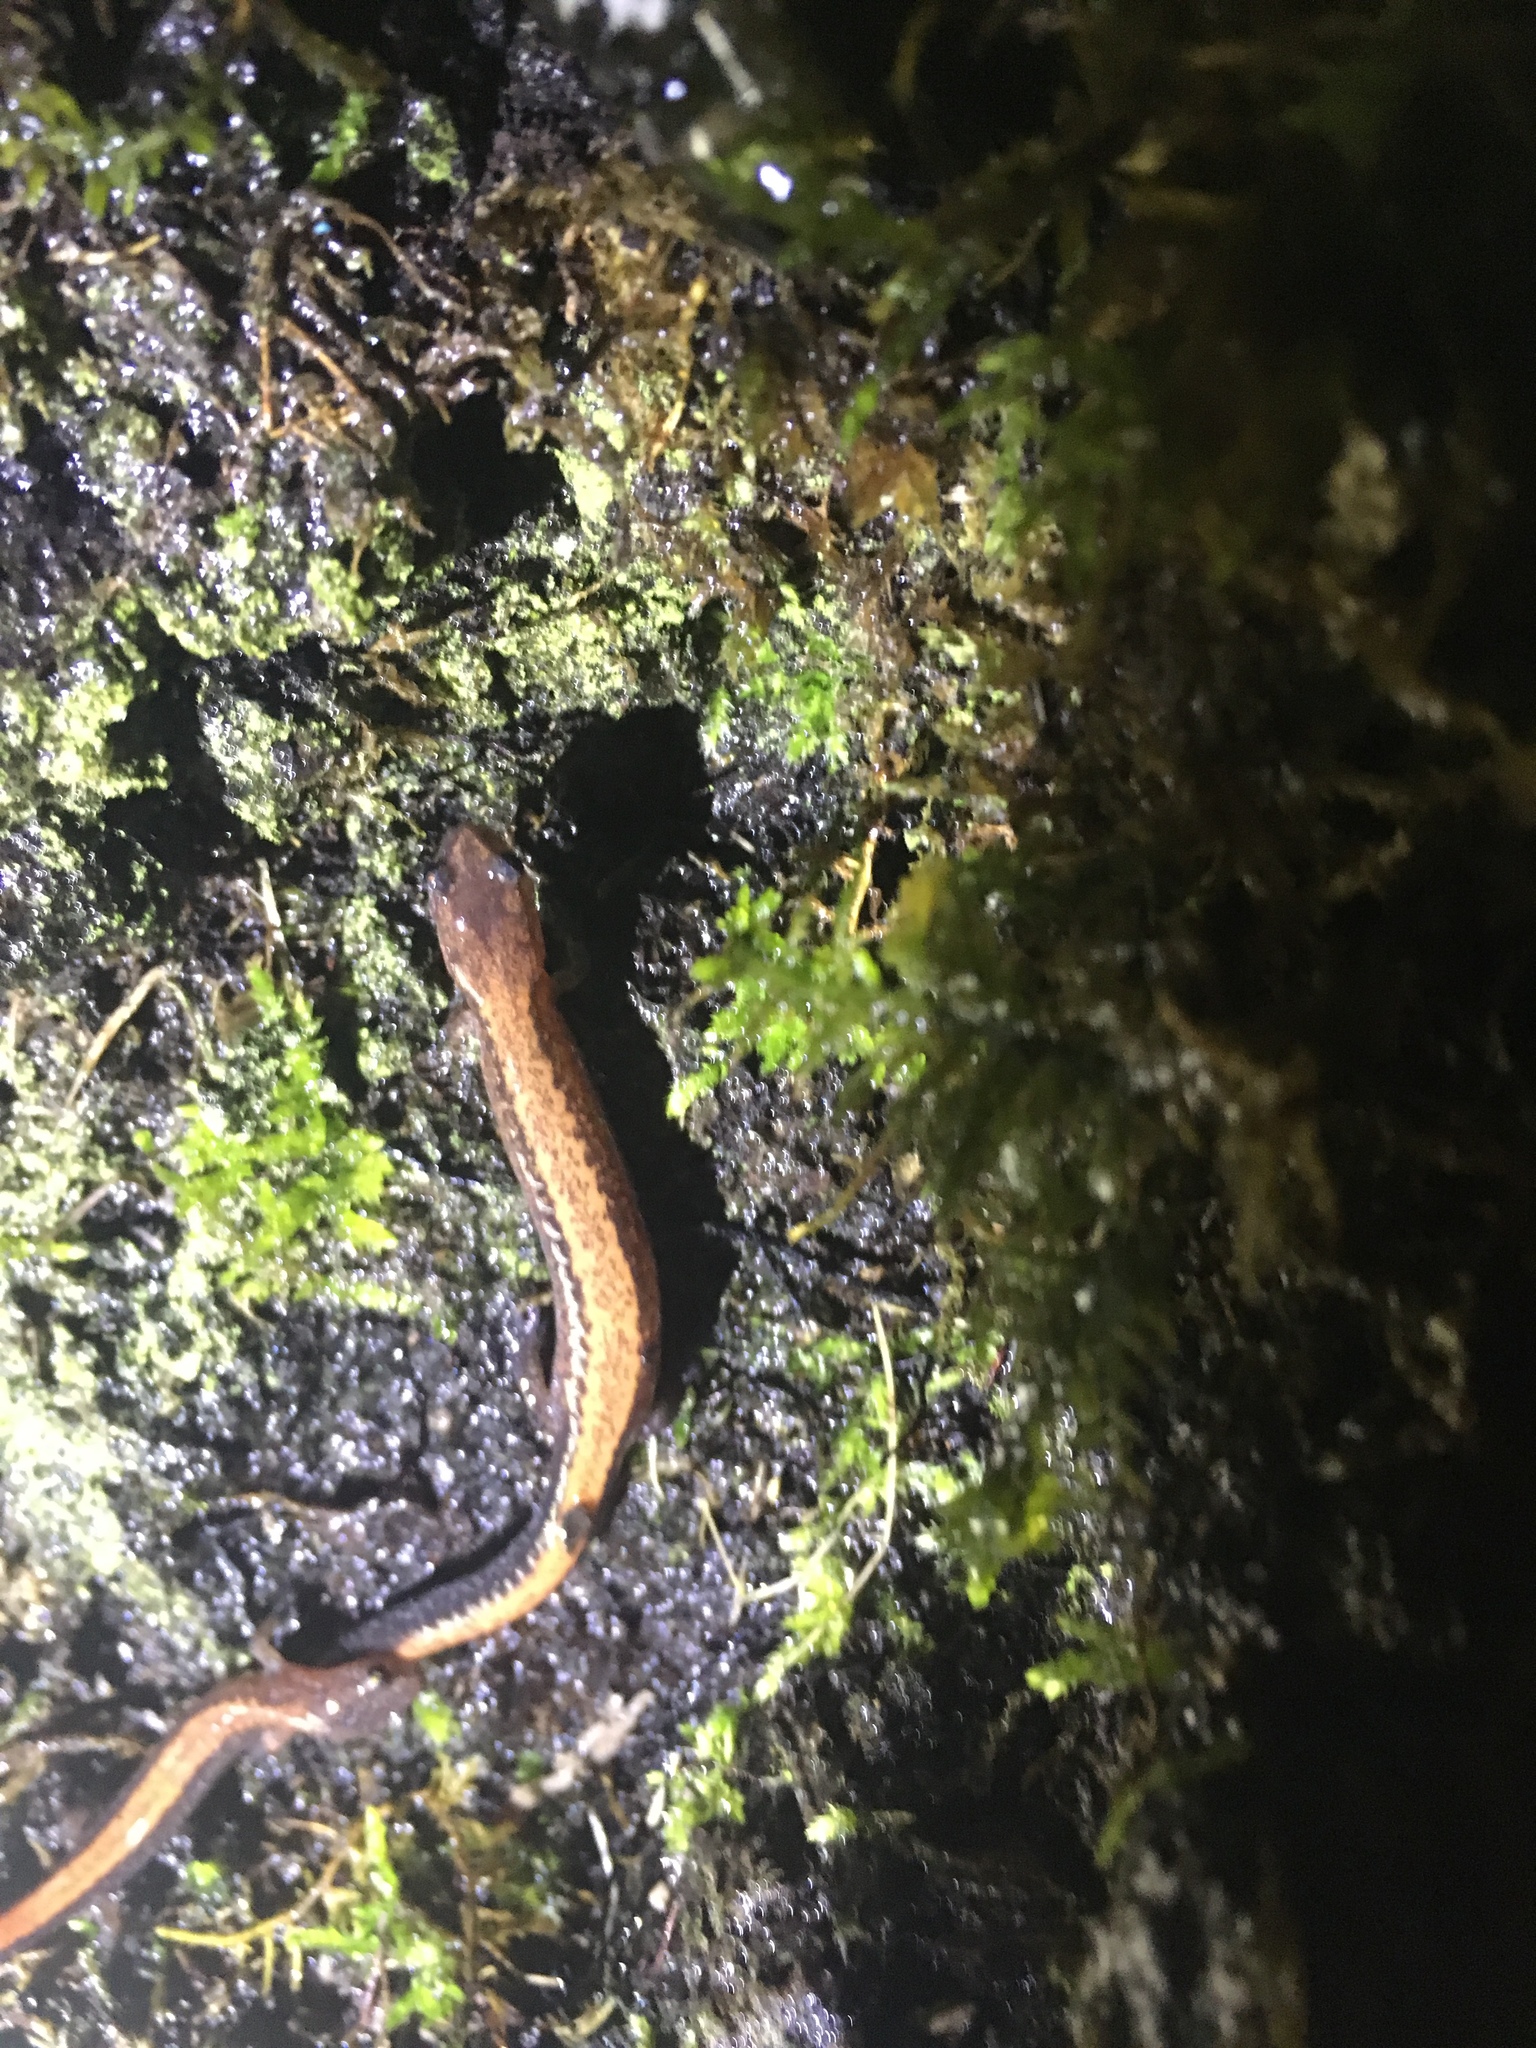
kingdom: Animalia
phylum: Chordata
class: Amphibia
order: Caudata
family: Plethodontidae
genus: Plethodon
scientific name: Plethodon cinereus
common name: Redback salamander
